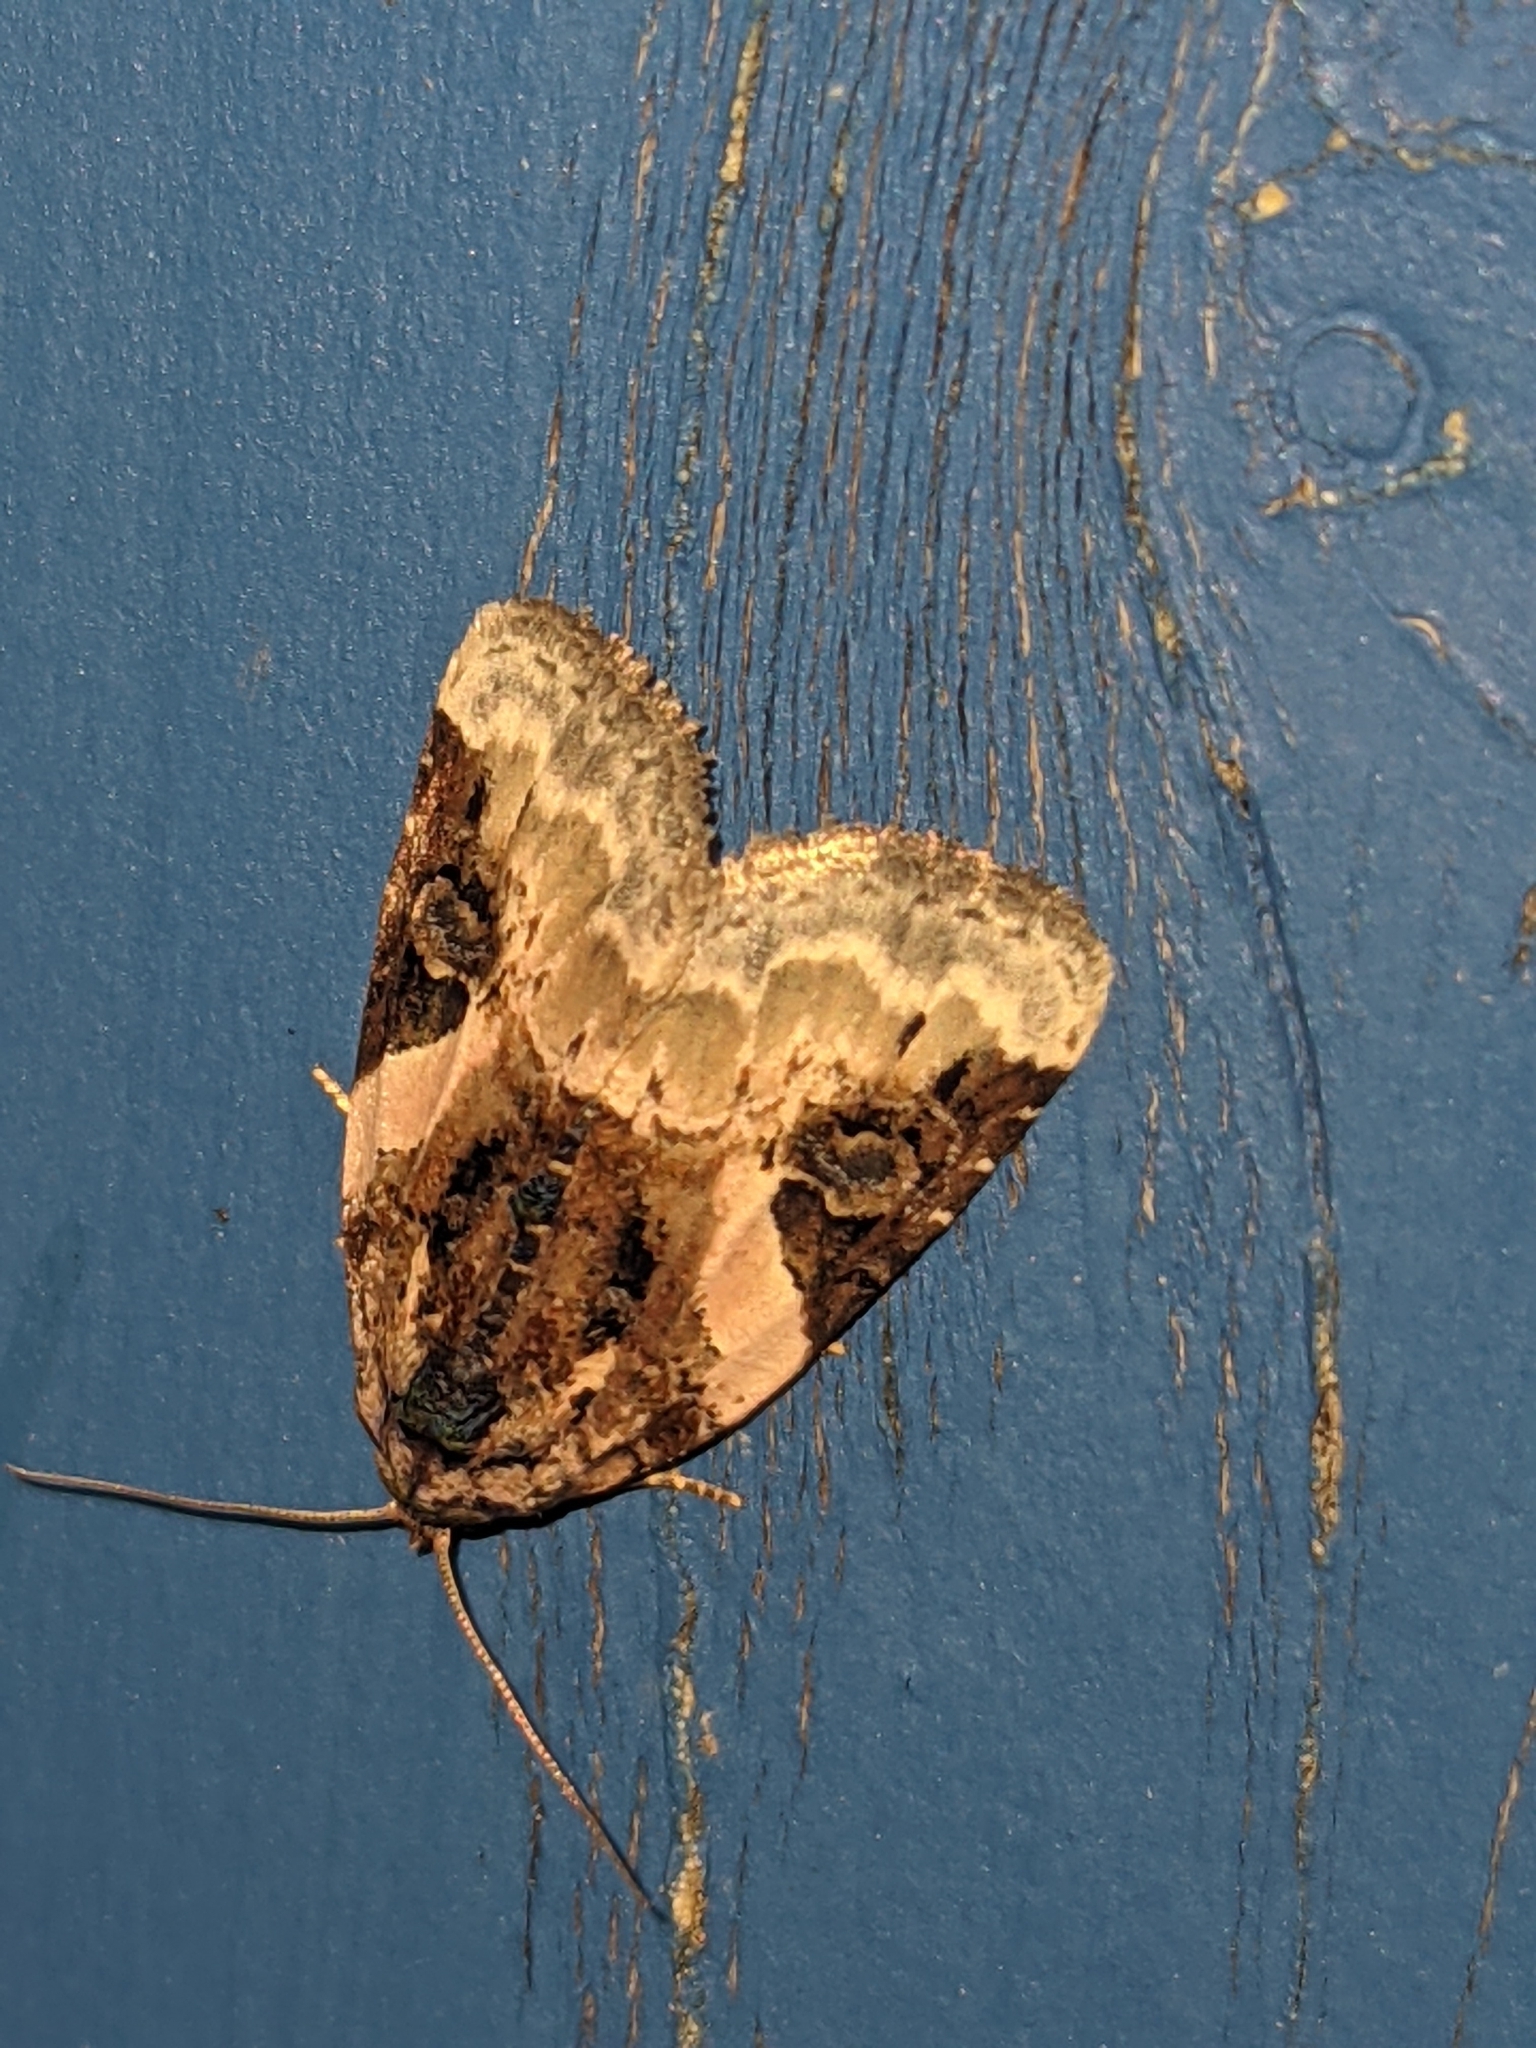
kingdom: Animalia
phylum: Arthropoda
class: Insecta
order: Lepidoptera
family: Noctuidae
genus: Pseudeustrotia
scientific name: Pseudeustrotia carneola
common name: Pink-barred lithacodia moth
